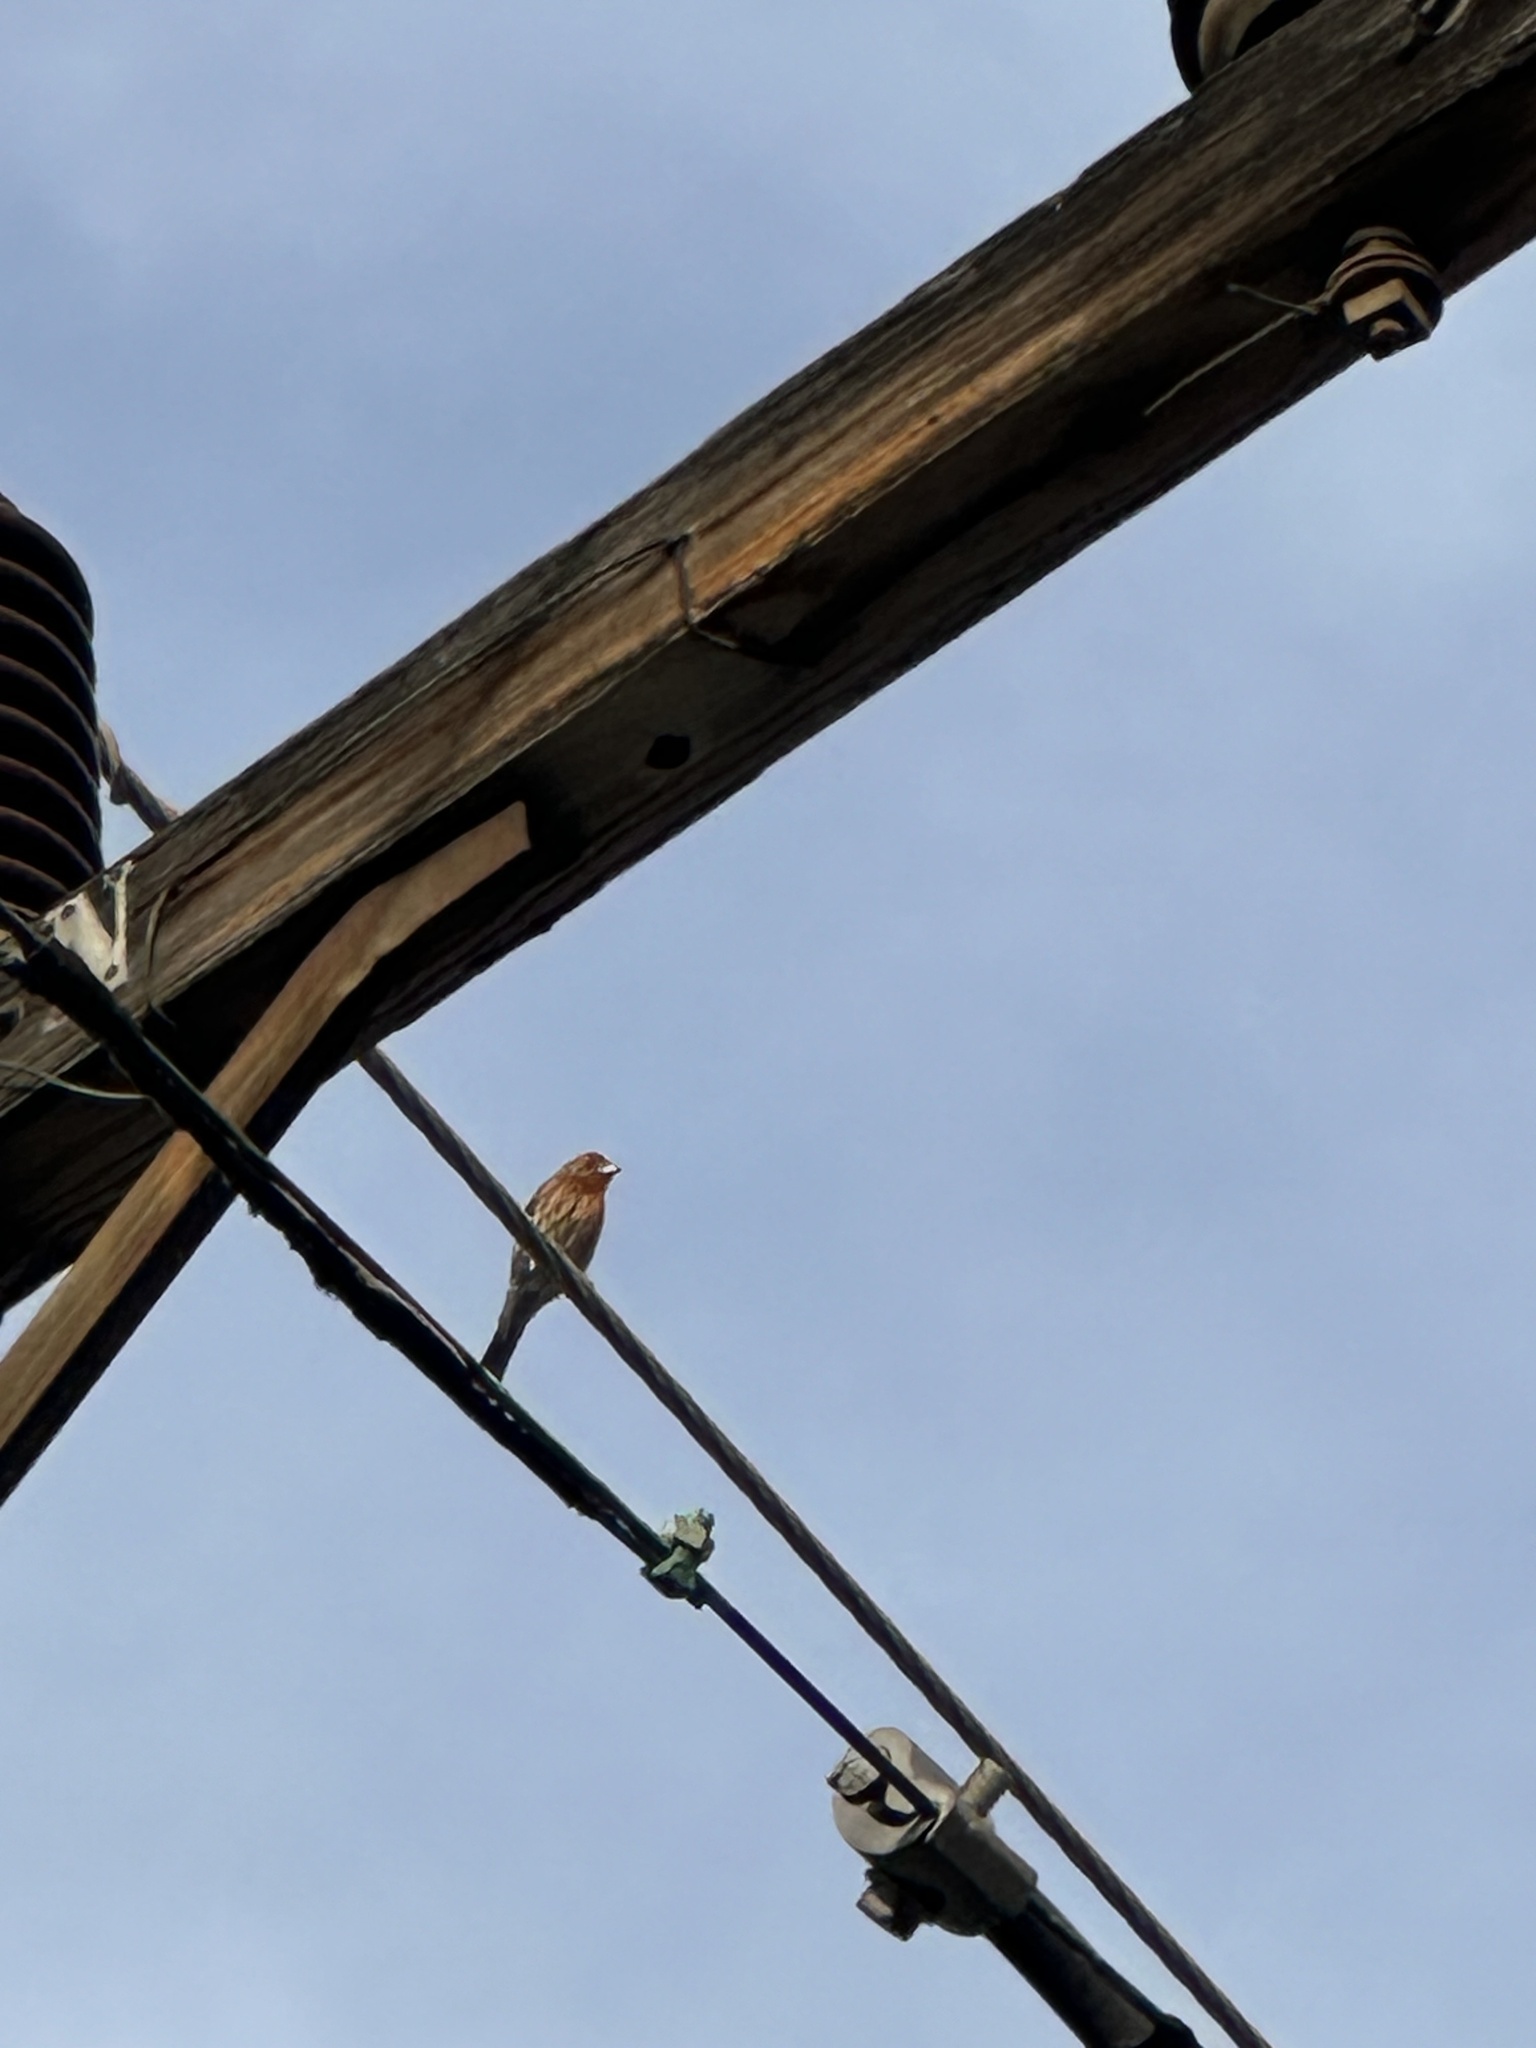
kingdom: Animalia
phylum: Chordata
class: Aves
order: Passeriformes
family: Fringillidae
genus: Haemorhous
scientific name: Haemorhous mexicanus
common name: House finch
